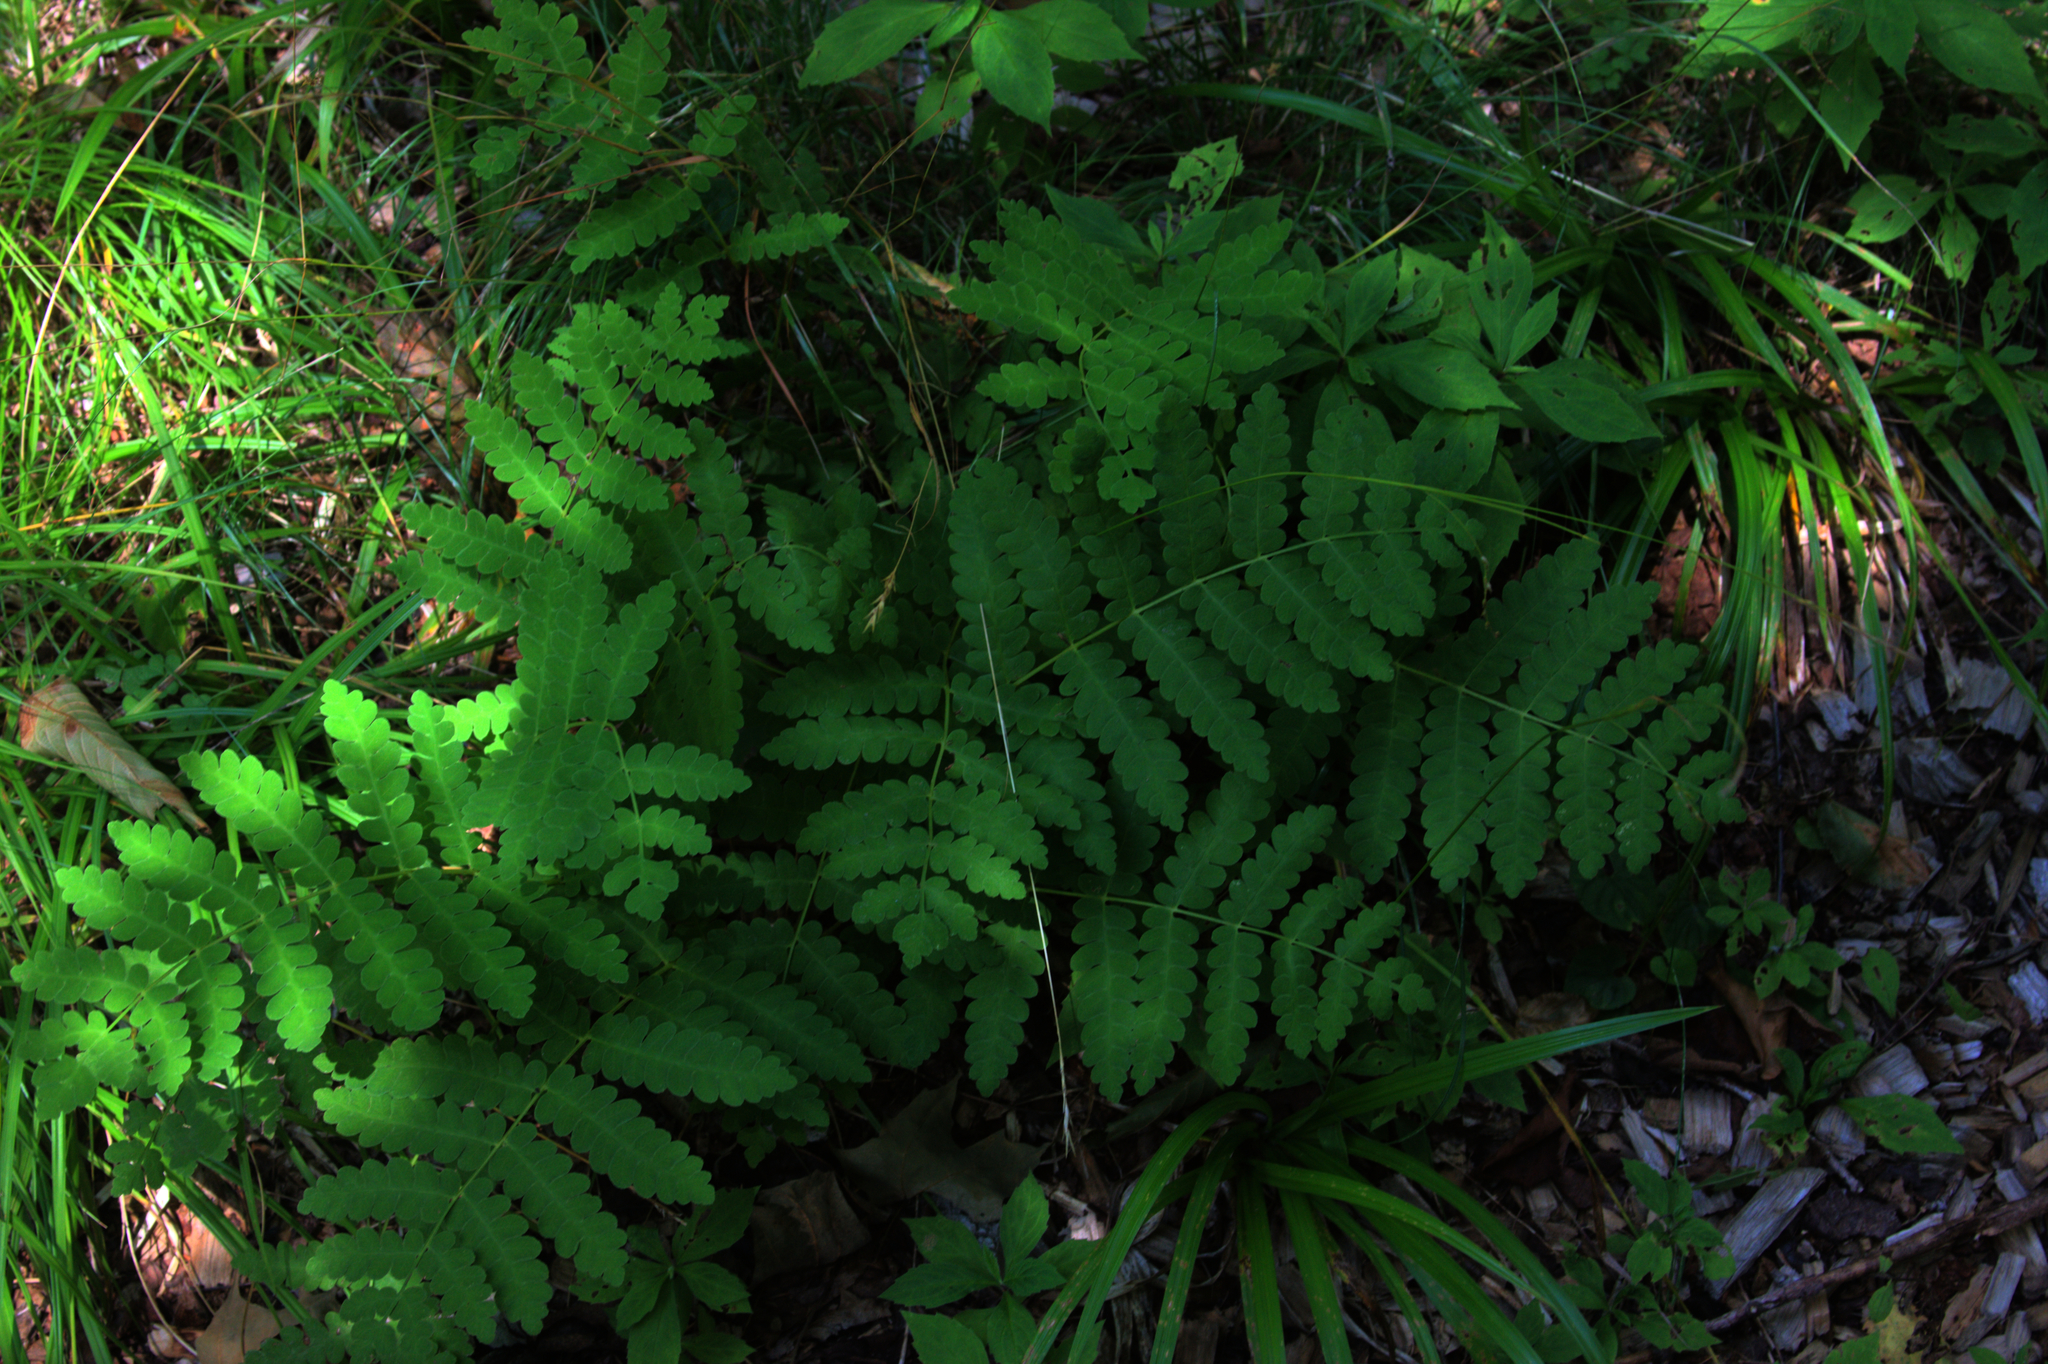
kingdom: Plantae
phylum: Tracheophyta
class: Polypodiopsida
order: Osmundales
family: Osmundaceae
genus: Claytosmunda
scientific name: Claytosmunda claytoniana
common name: Clayton's fern
